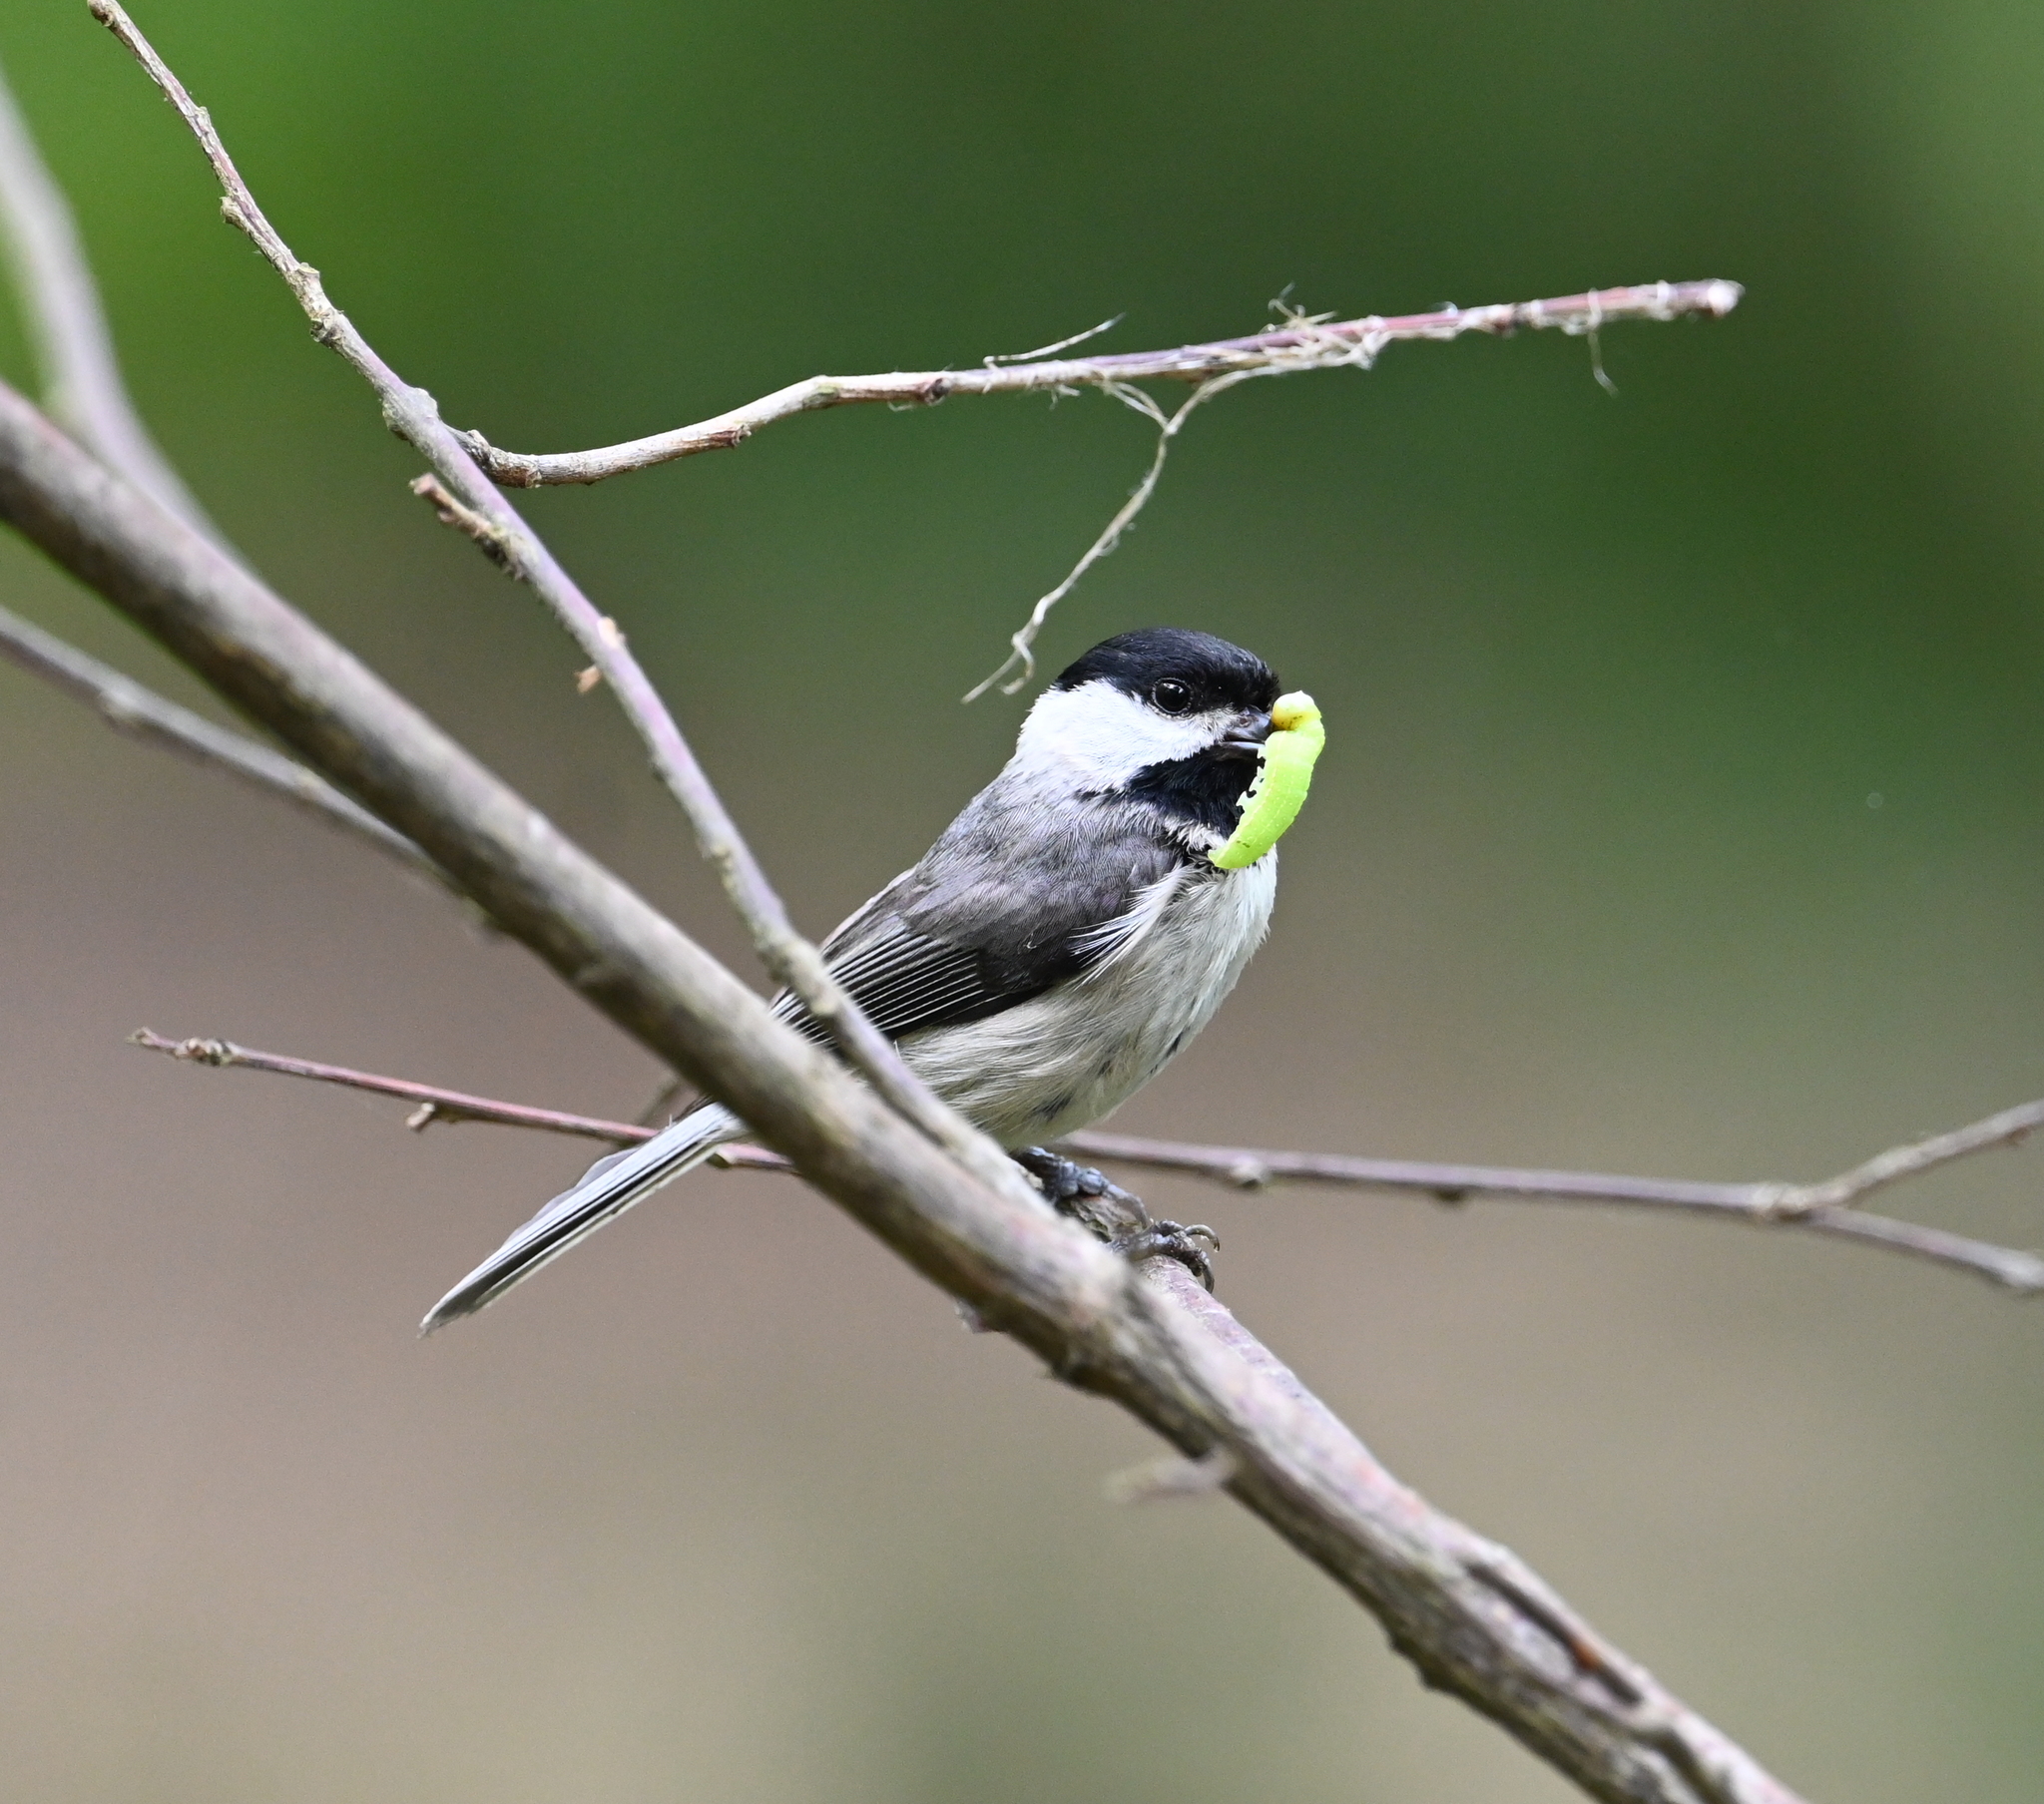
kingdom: Animalia
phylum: Chordata
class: Aves
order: Passeriformes
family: Paridae
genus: Poecile
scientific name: Poecile carolinensis
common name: Carolina chickadee
